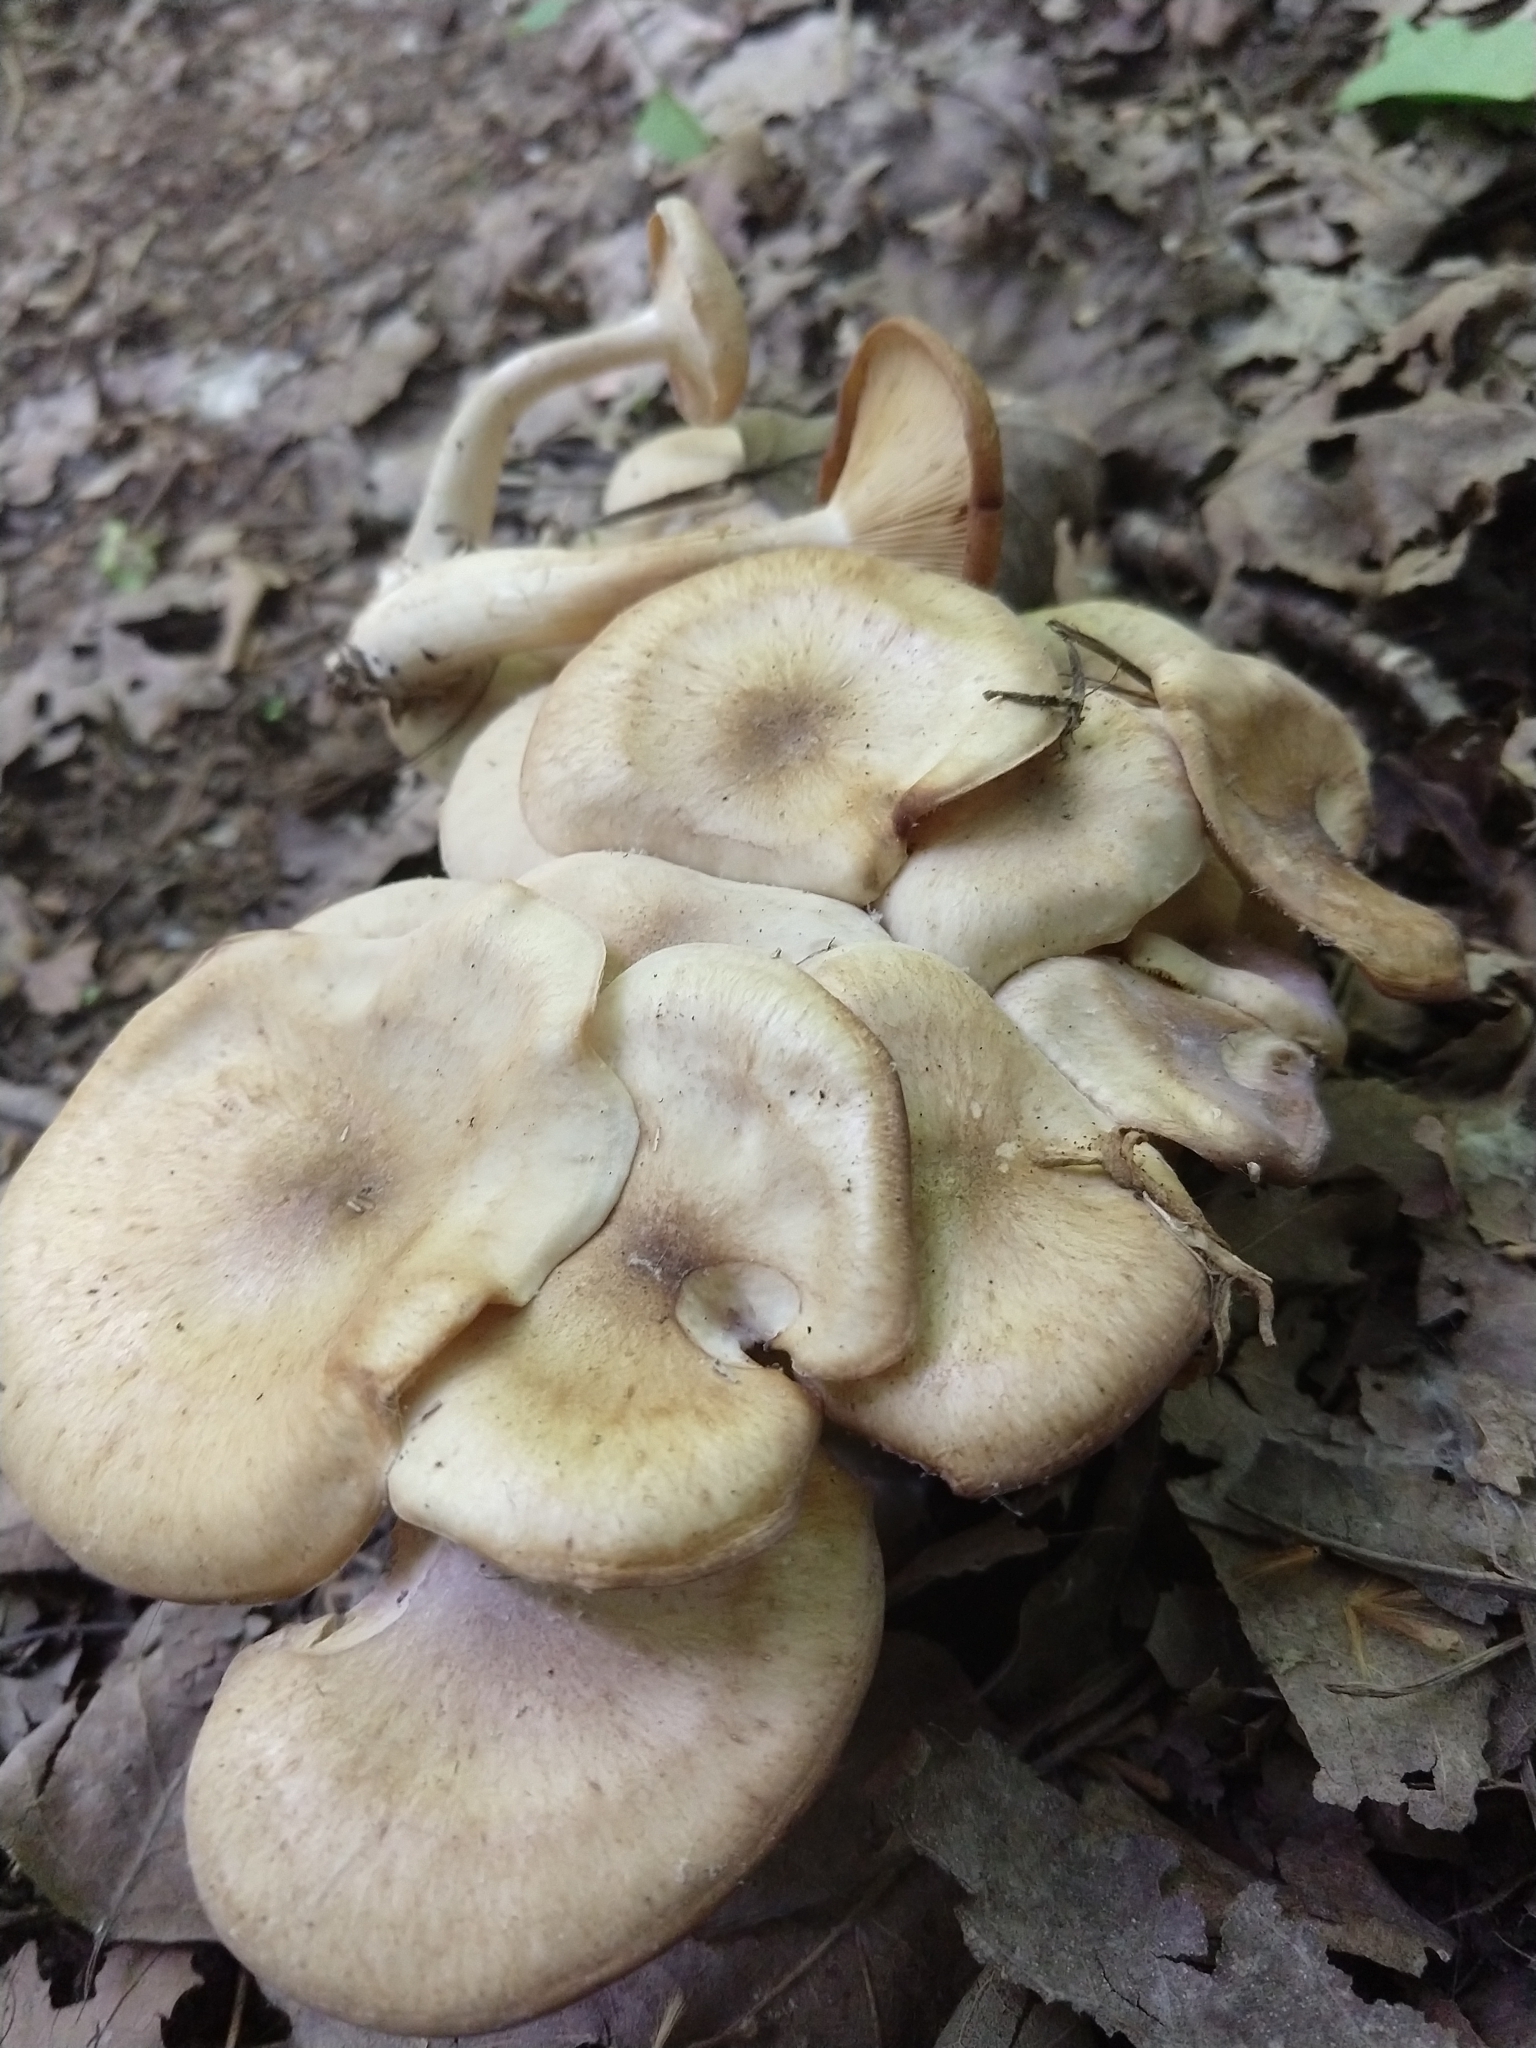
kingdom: Fungi
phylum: Basidiomycota
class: Agaricomycetes
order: Agaricales
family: Physalacriaceae
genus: Desarmillaria
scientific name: Desarmillaria caespitosa
